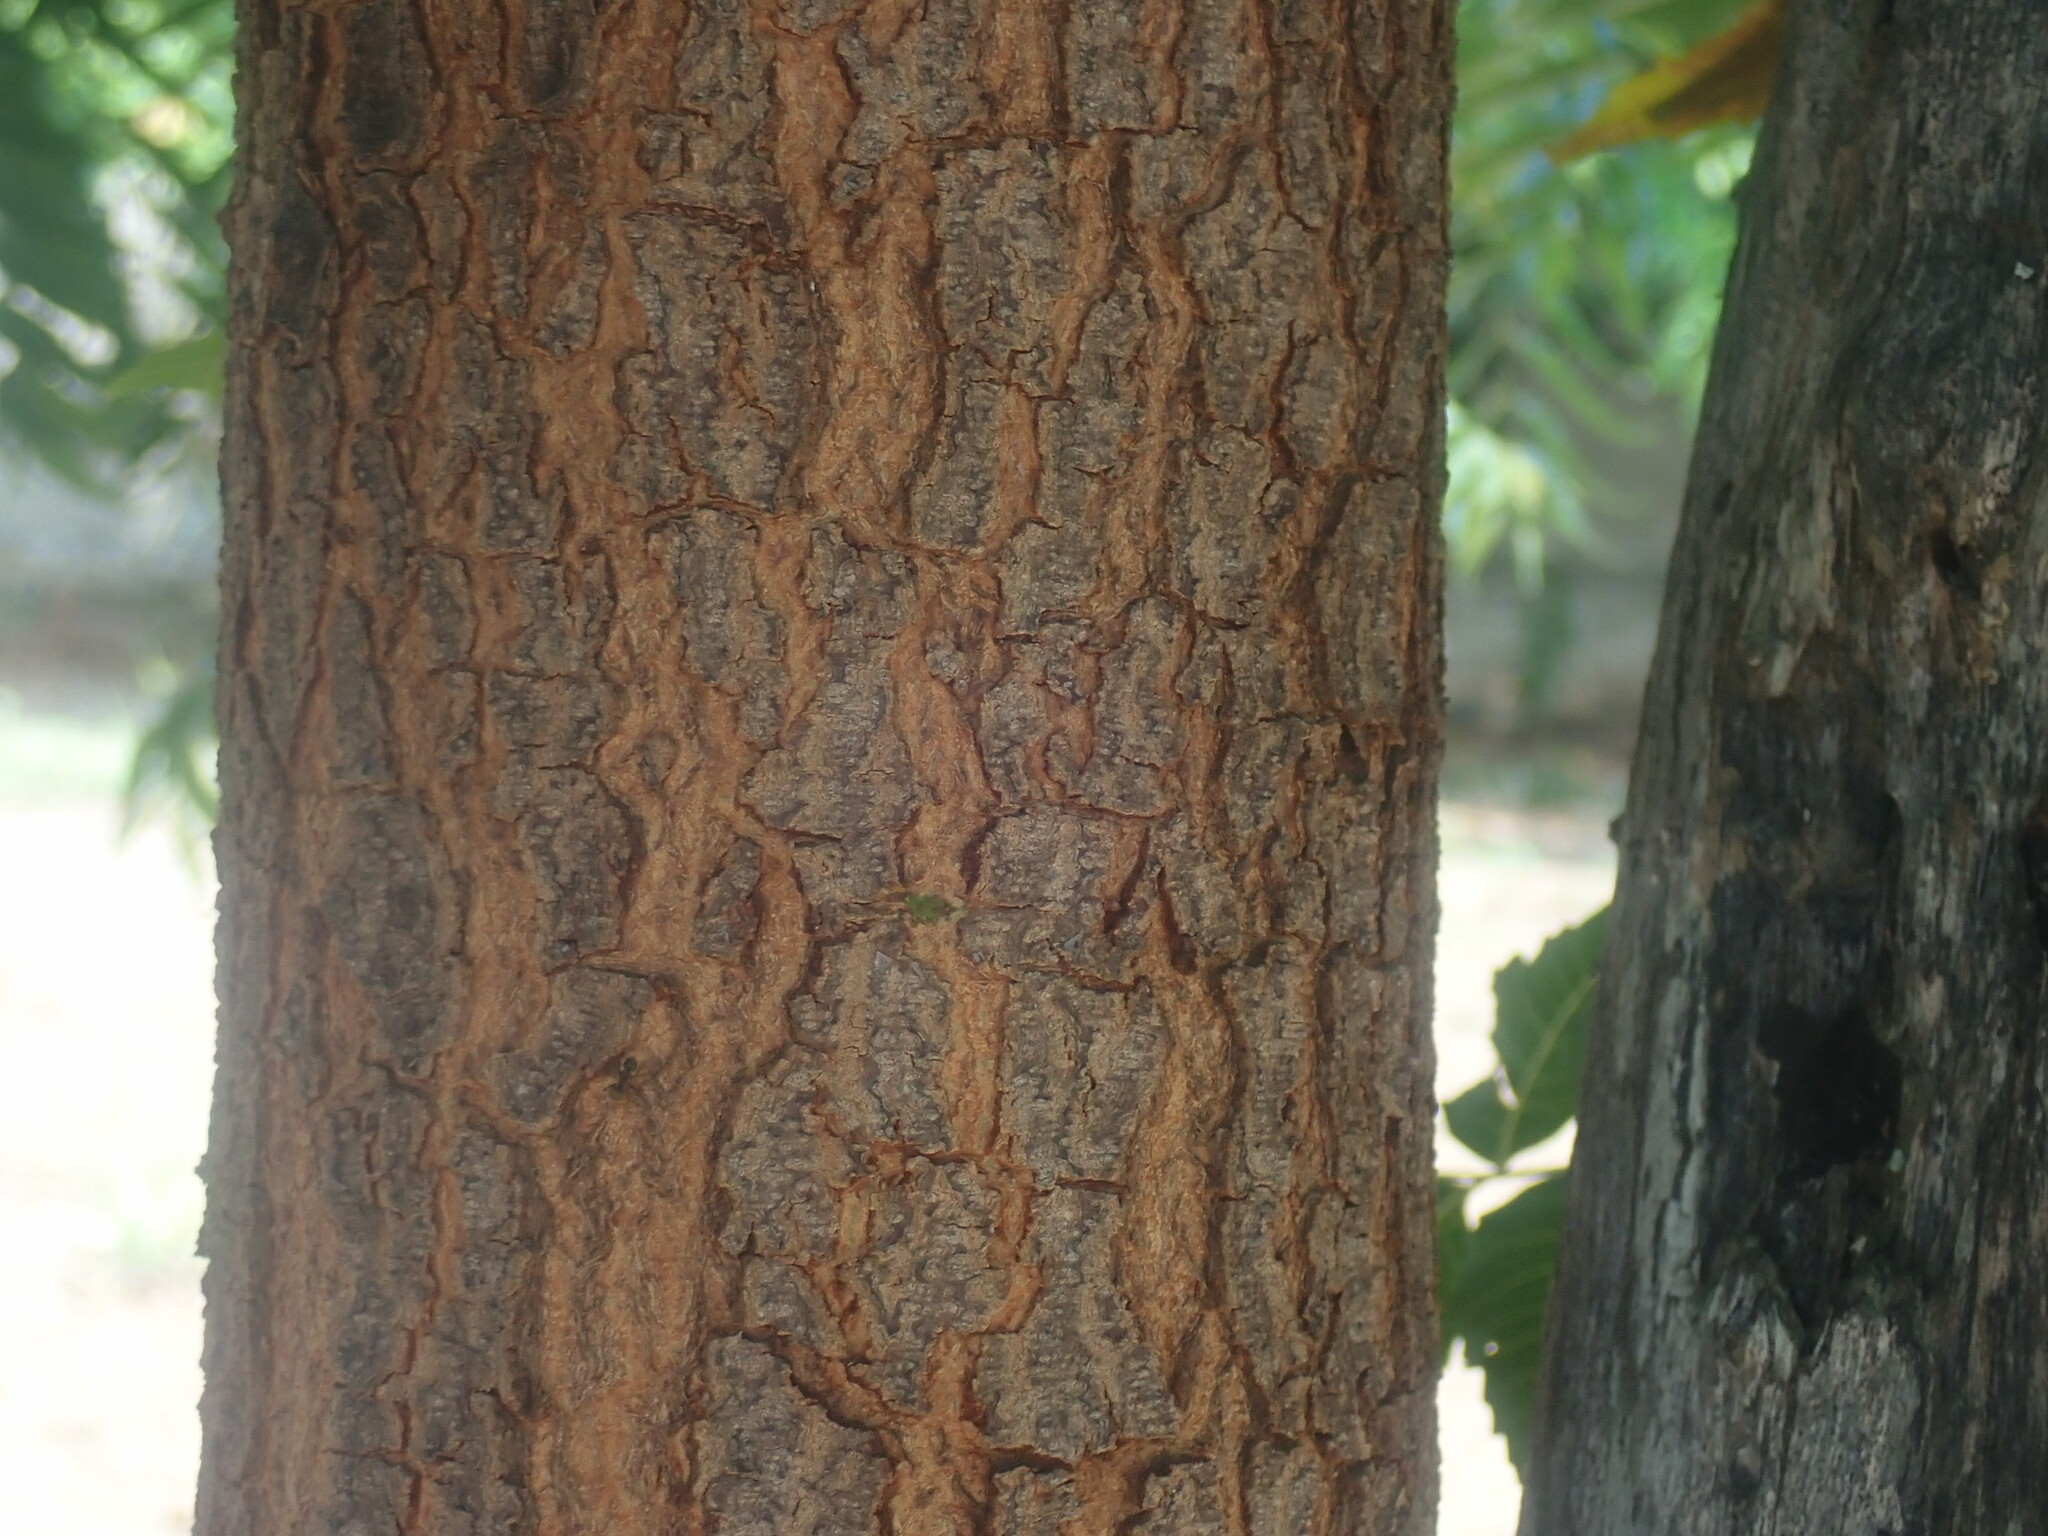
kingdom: Plantae
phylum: Tracheophyta
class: Magnoliopsida
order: Sapindales
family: Meliaceae
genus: Azadirachta
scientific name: Azadirachta indica
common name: Neem
